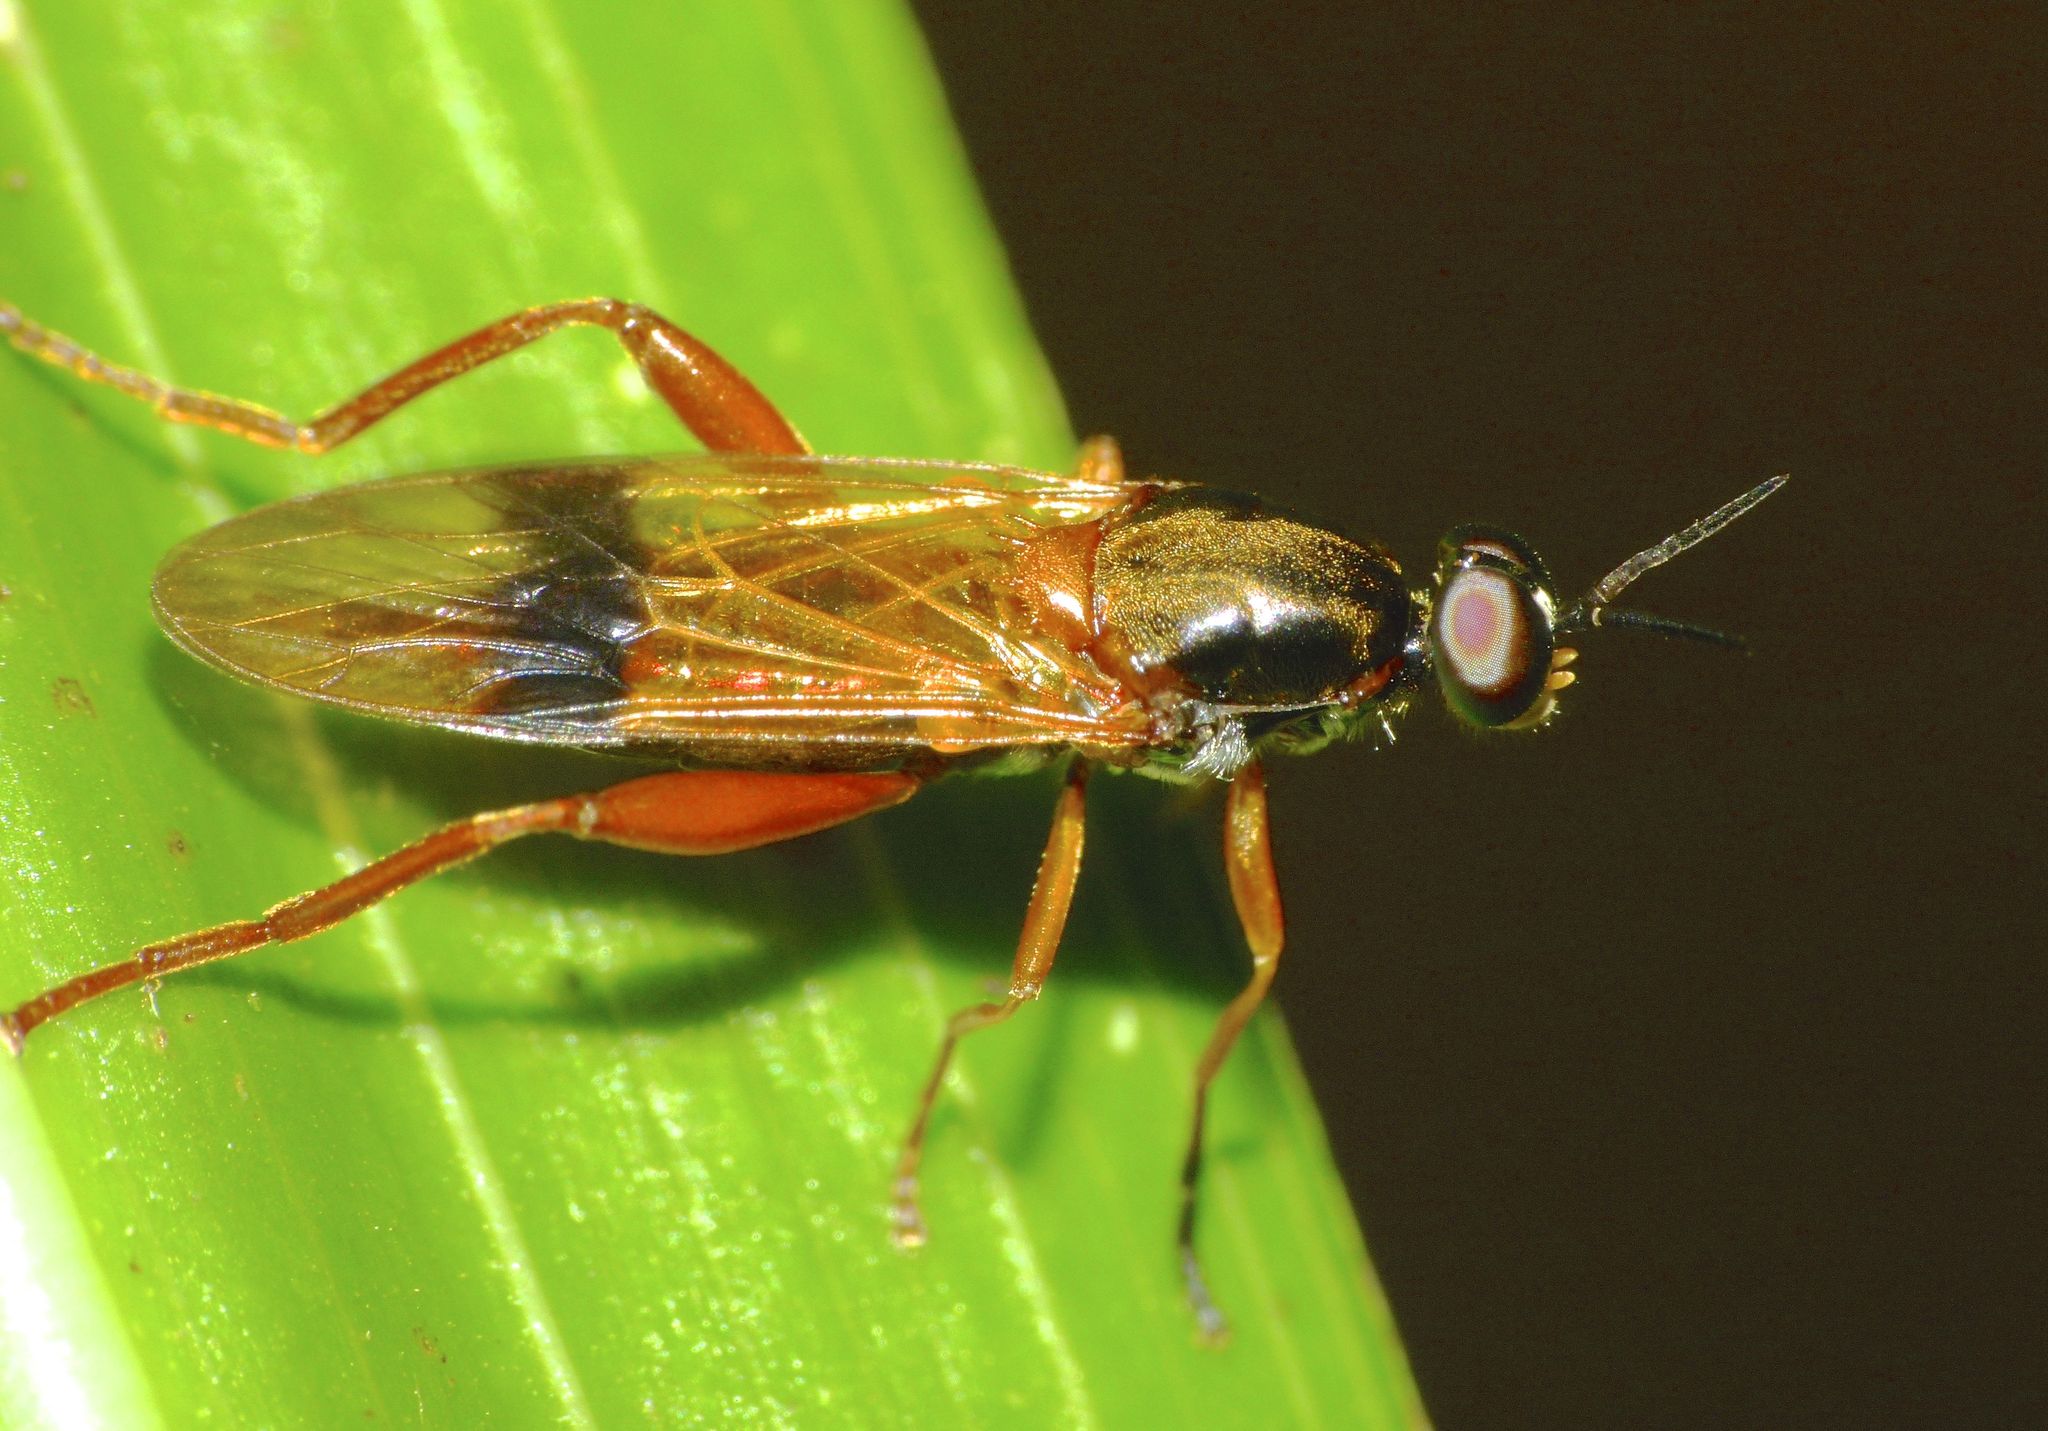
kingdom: Animalia
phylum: Arthropoda
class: Insecta
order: Diptera
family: Stratiomyidae
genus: Benhamyia
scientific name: Benhamyia apicalis
